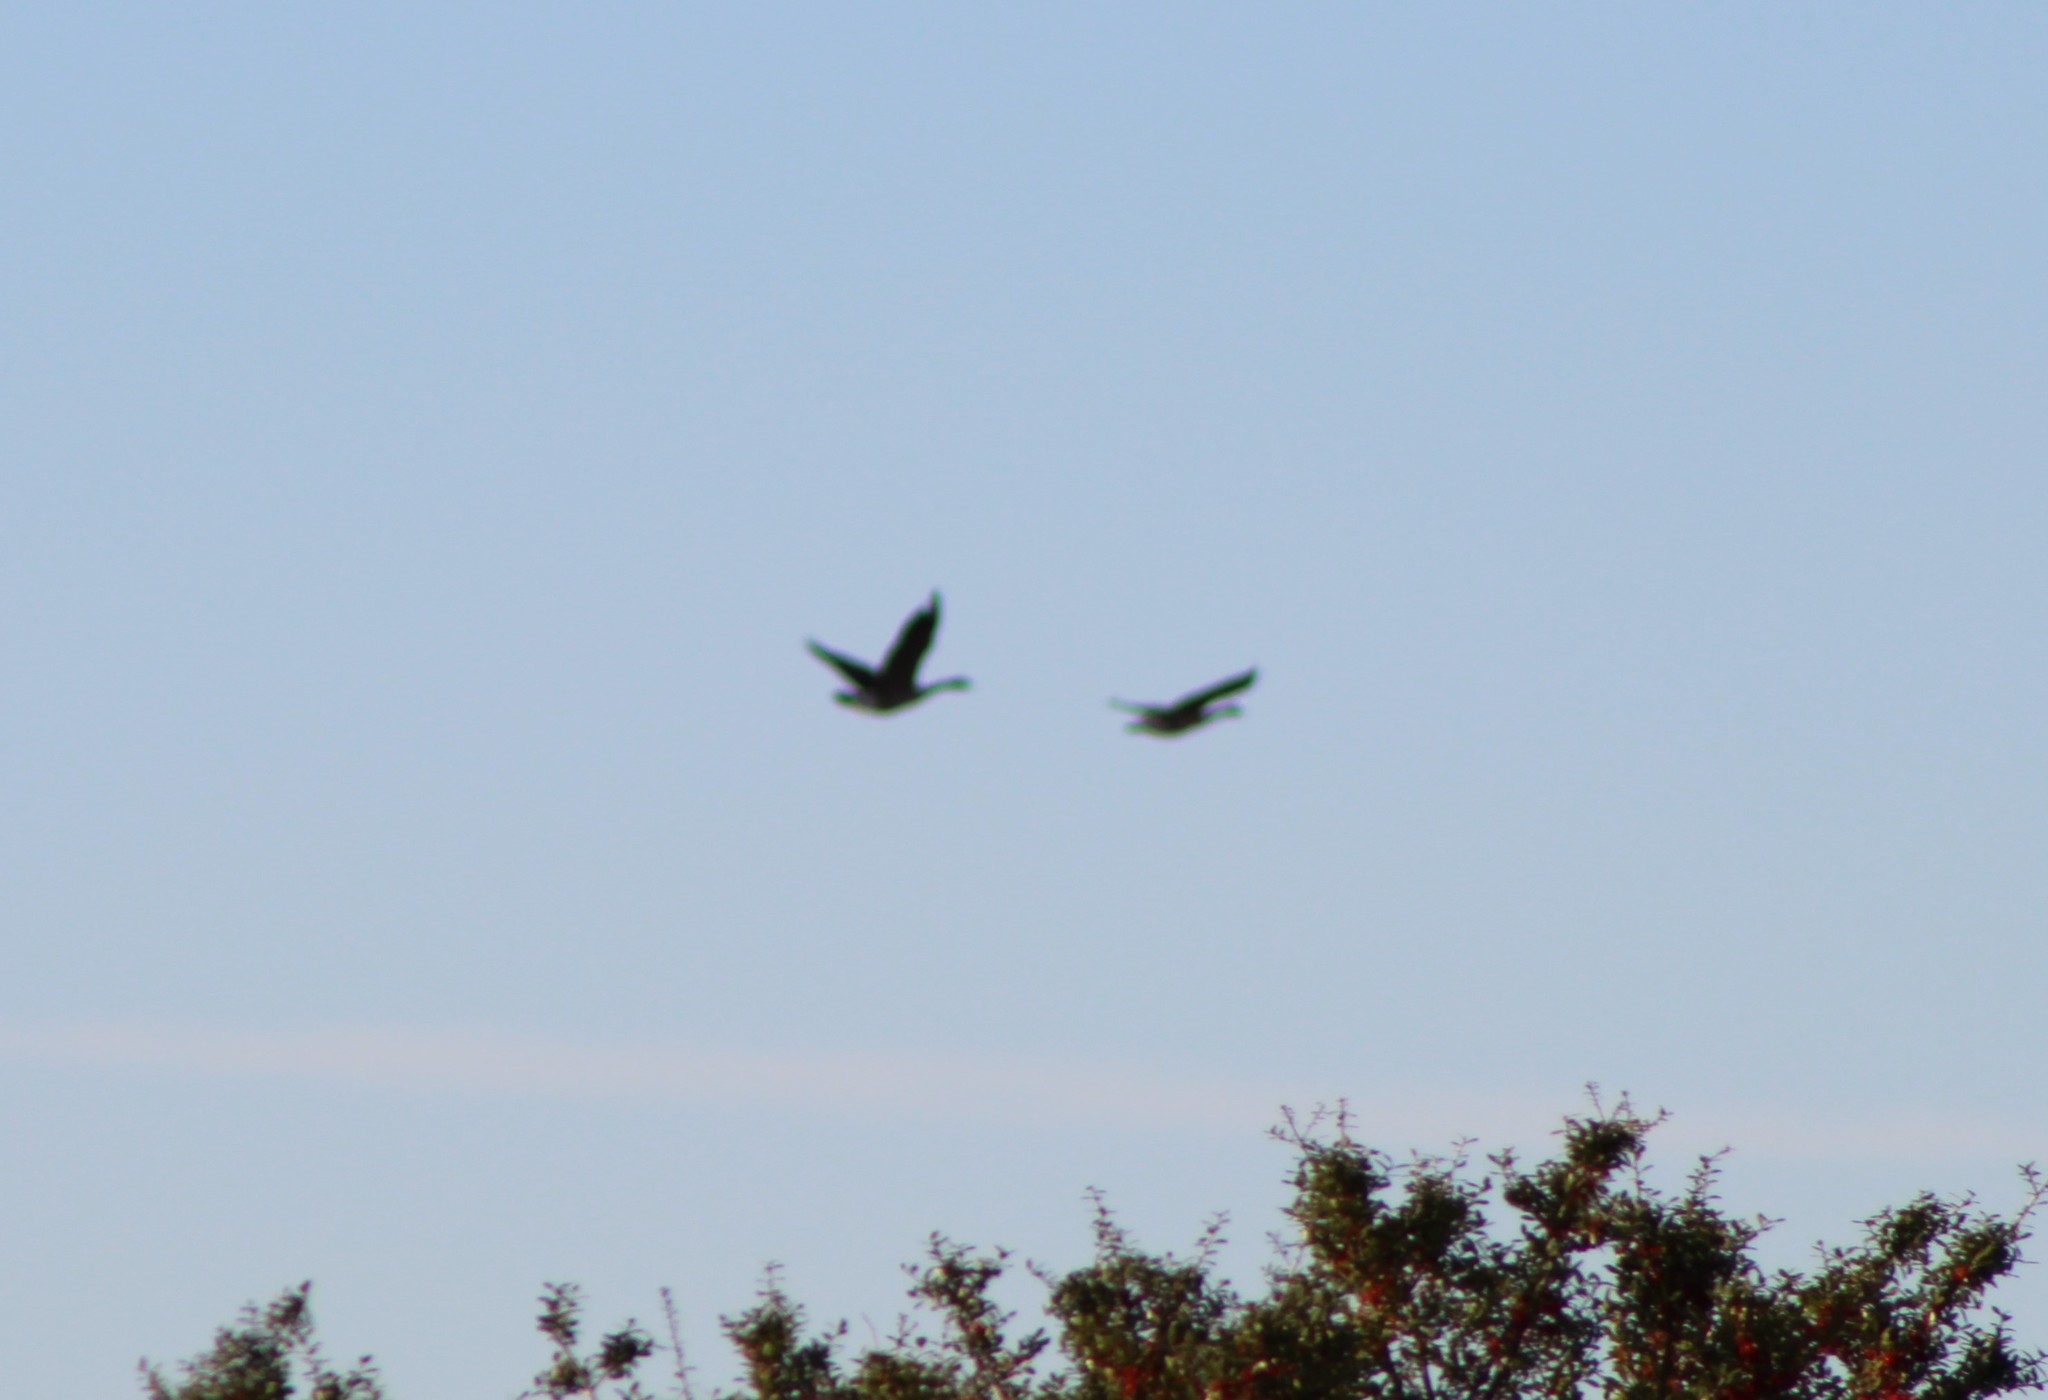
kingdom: Animalia
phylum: Chordata
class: Aves
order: Anseriformes
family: Anatidae
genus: Branta
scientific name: Branta canadensis
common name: Canada goose
